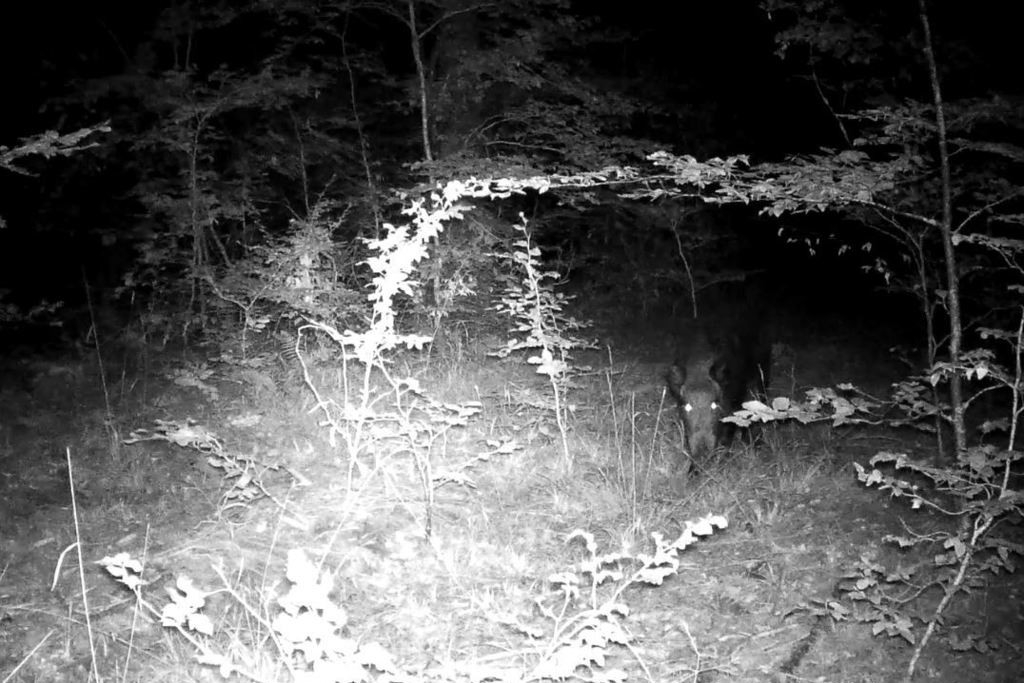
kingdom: Animalia
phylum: Chordata
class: Mammalia
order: Artiodactyla
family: Suidae
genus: Sus
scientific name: Sus scrofa
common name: Wild boar
